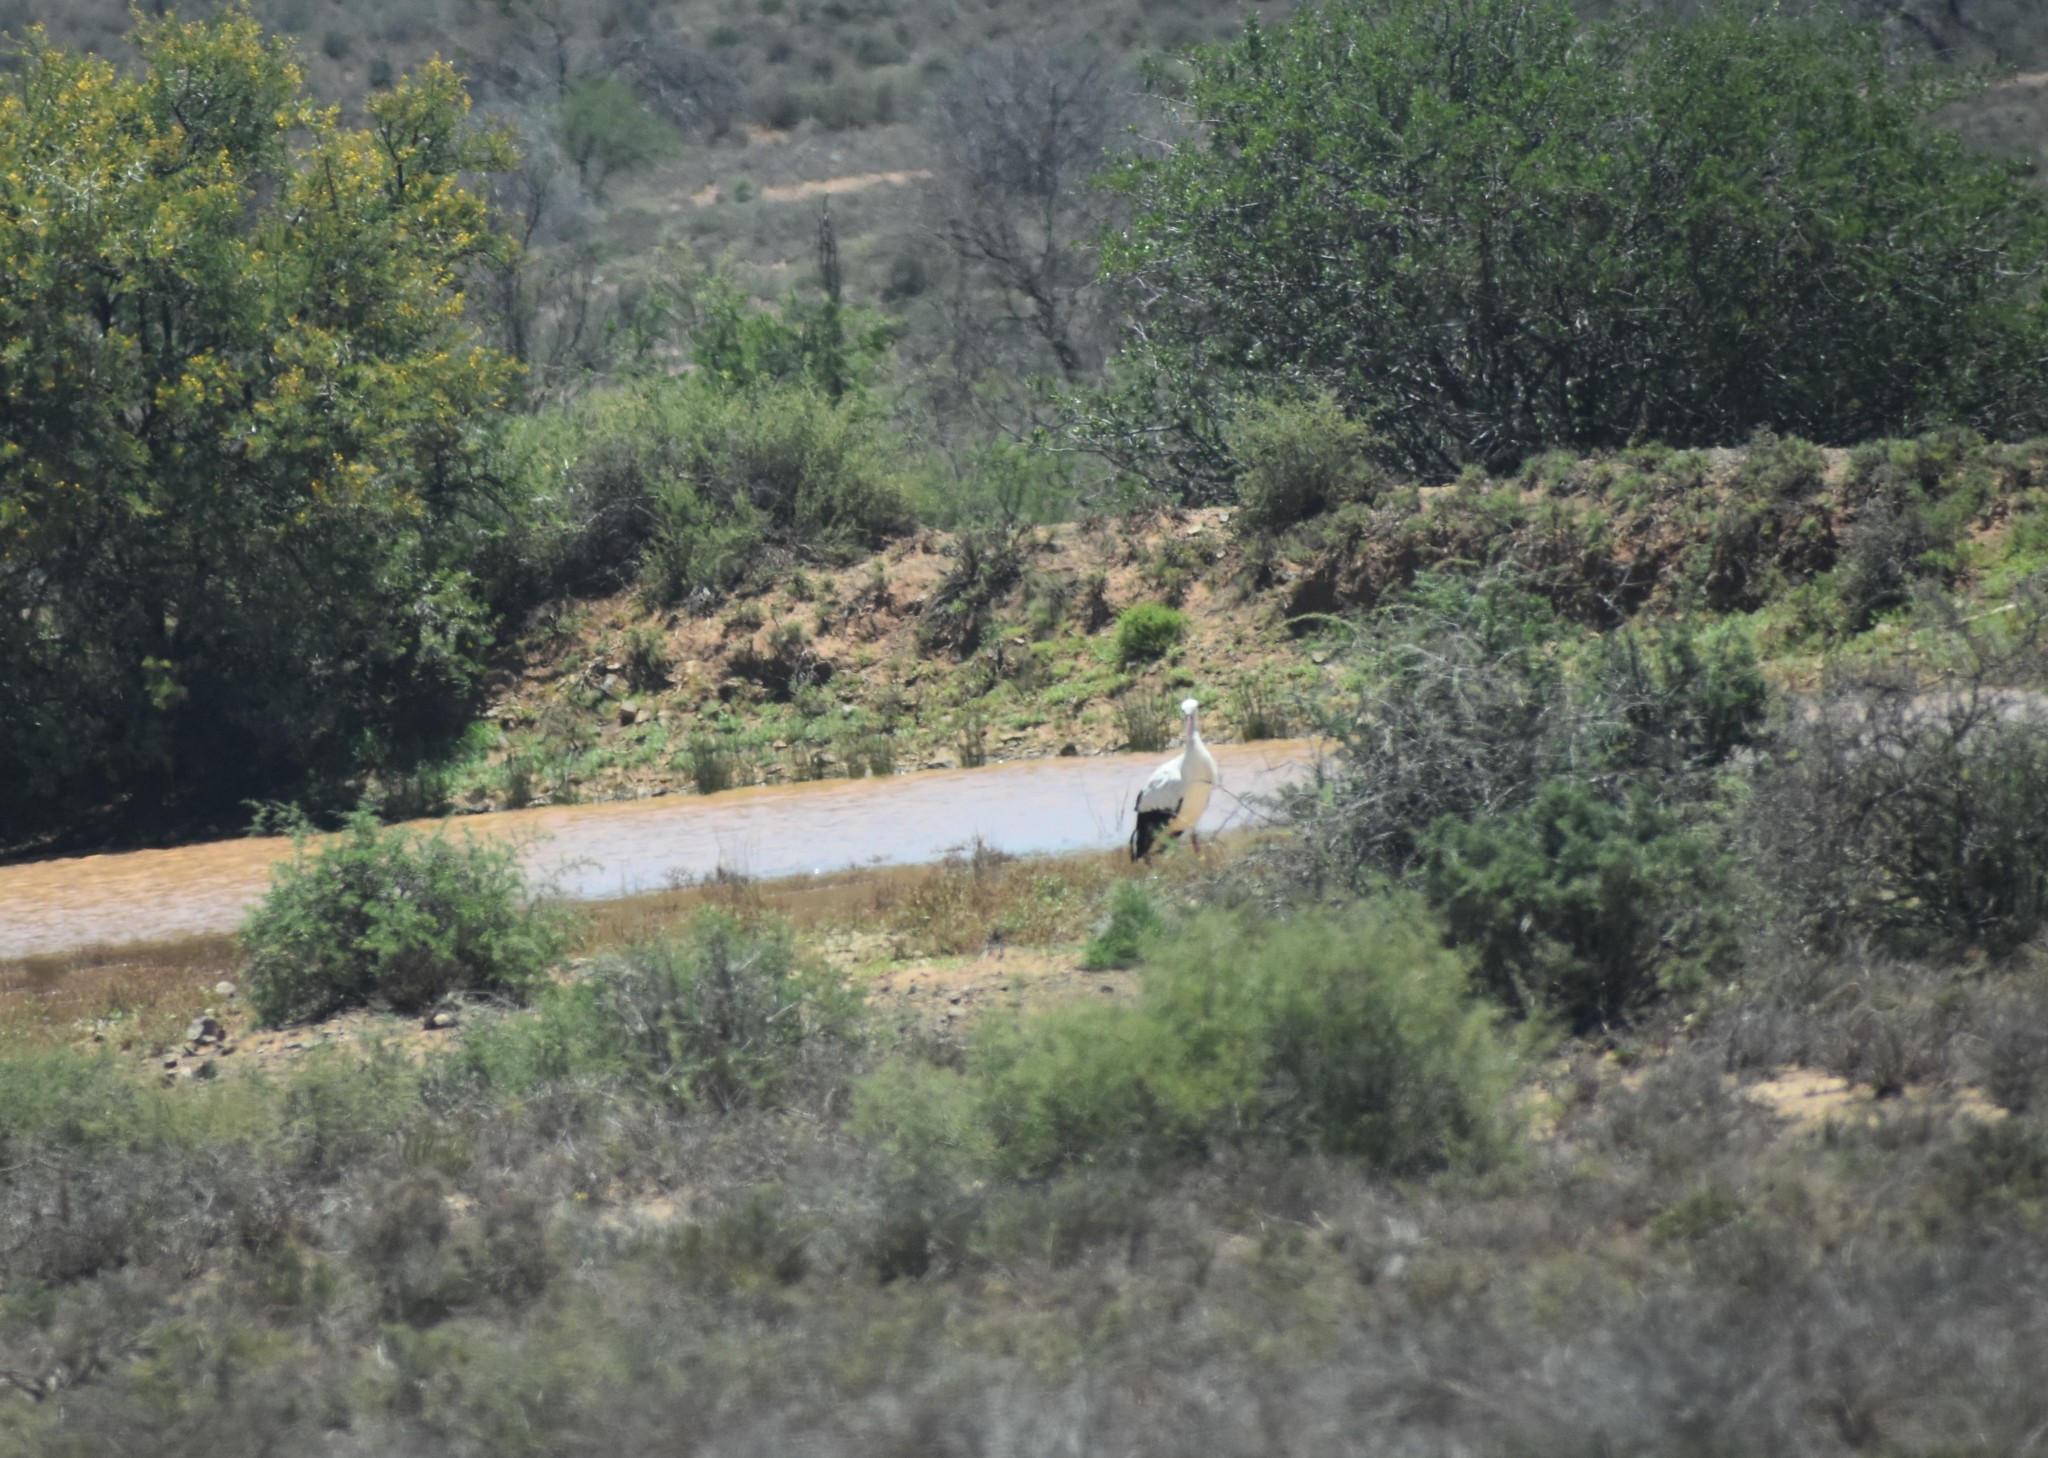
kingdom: Animalia
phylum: Chordata
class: Aves
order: Ciconiiformes
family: Ciconiidae
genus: Ciconia
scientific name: Ciconia ciconia
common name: White stork
